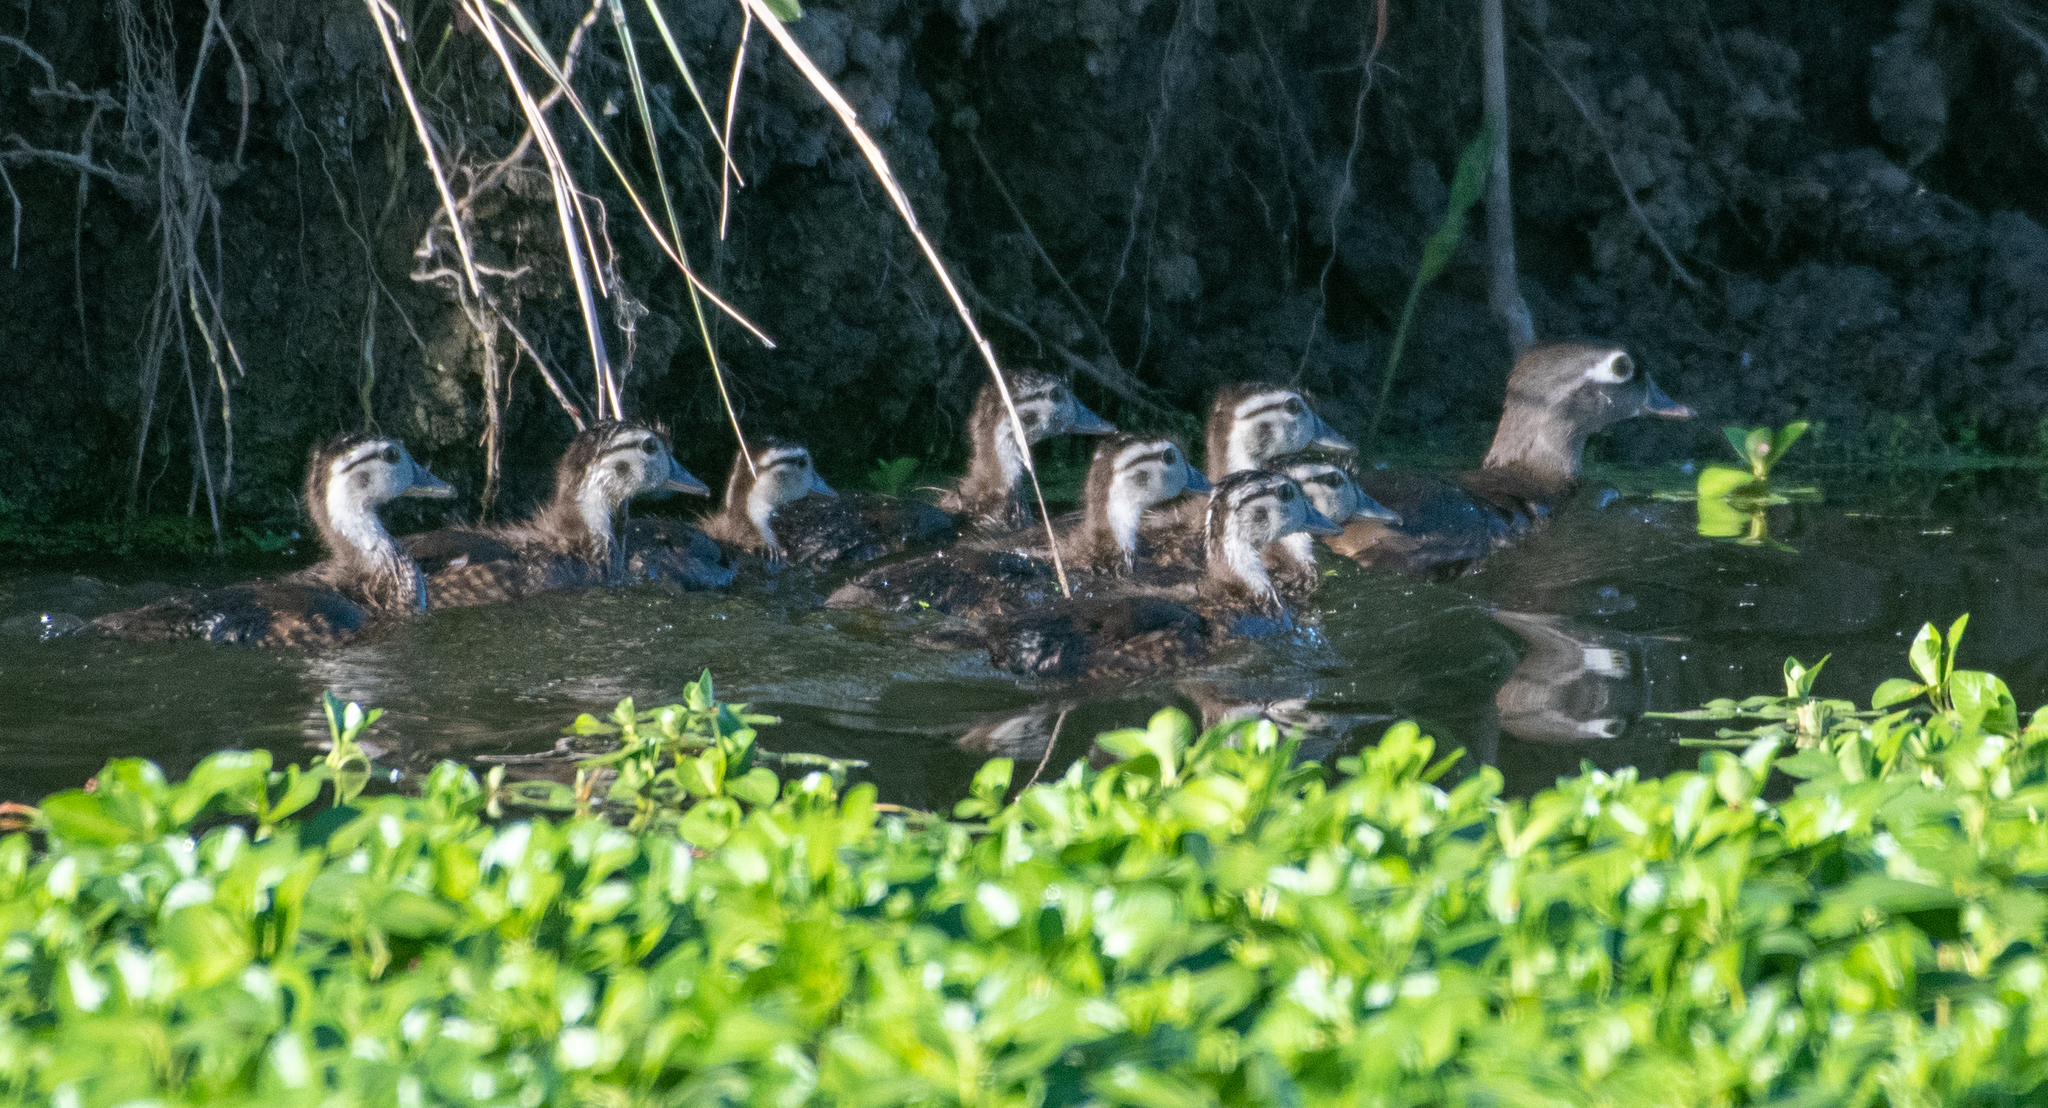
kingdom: Animalia
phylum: Chordata
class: Aves
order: Anseriformes
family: Anatidae
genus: Aix
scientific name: Aix sponsa
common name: Wood duck
